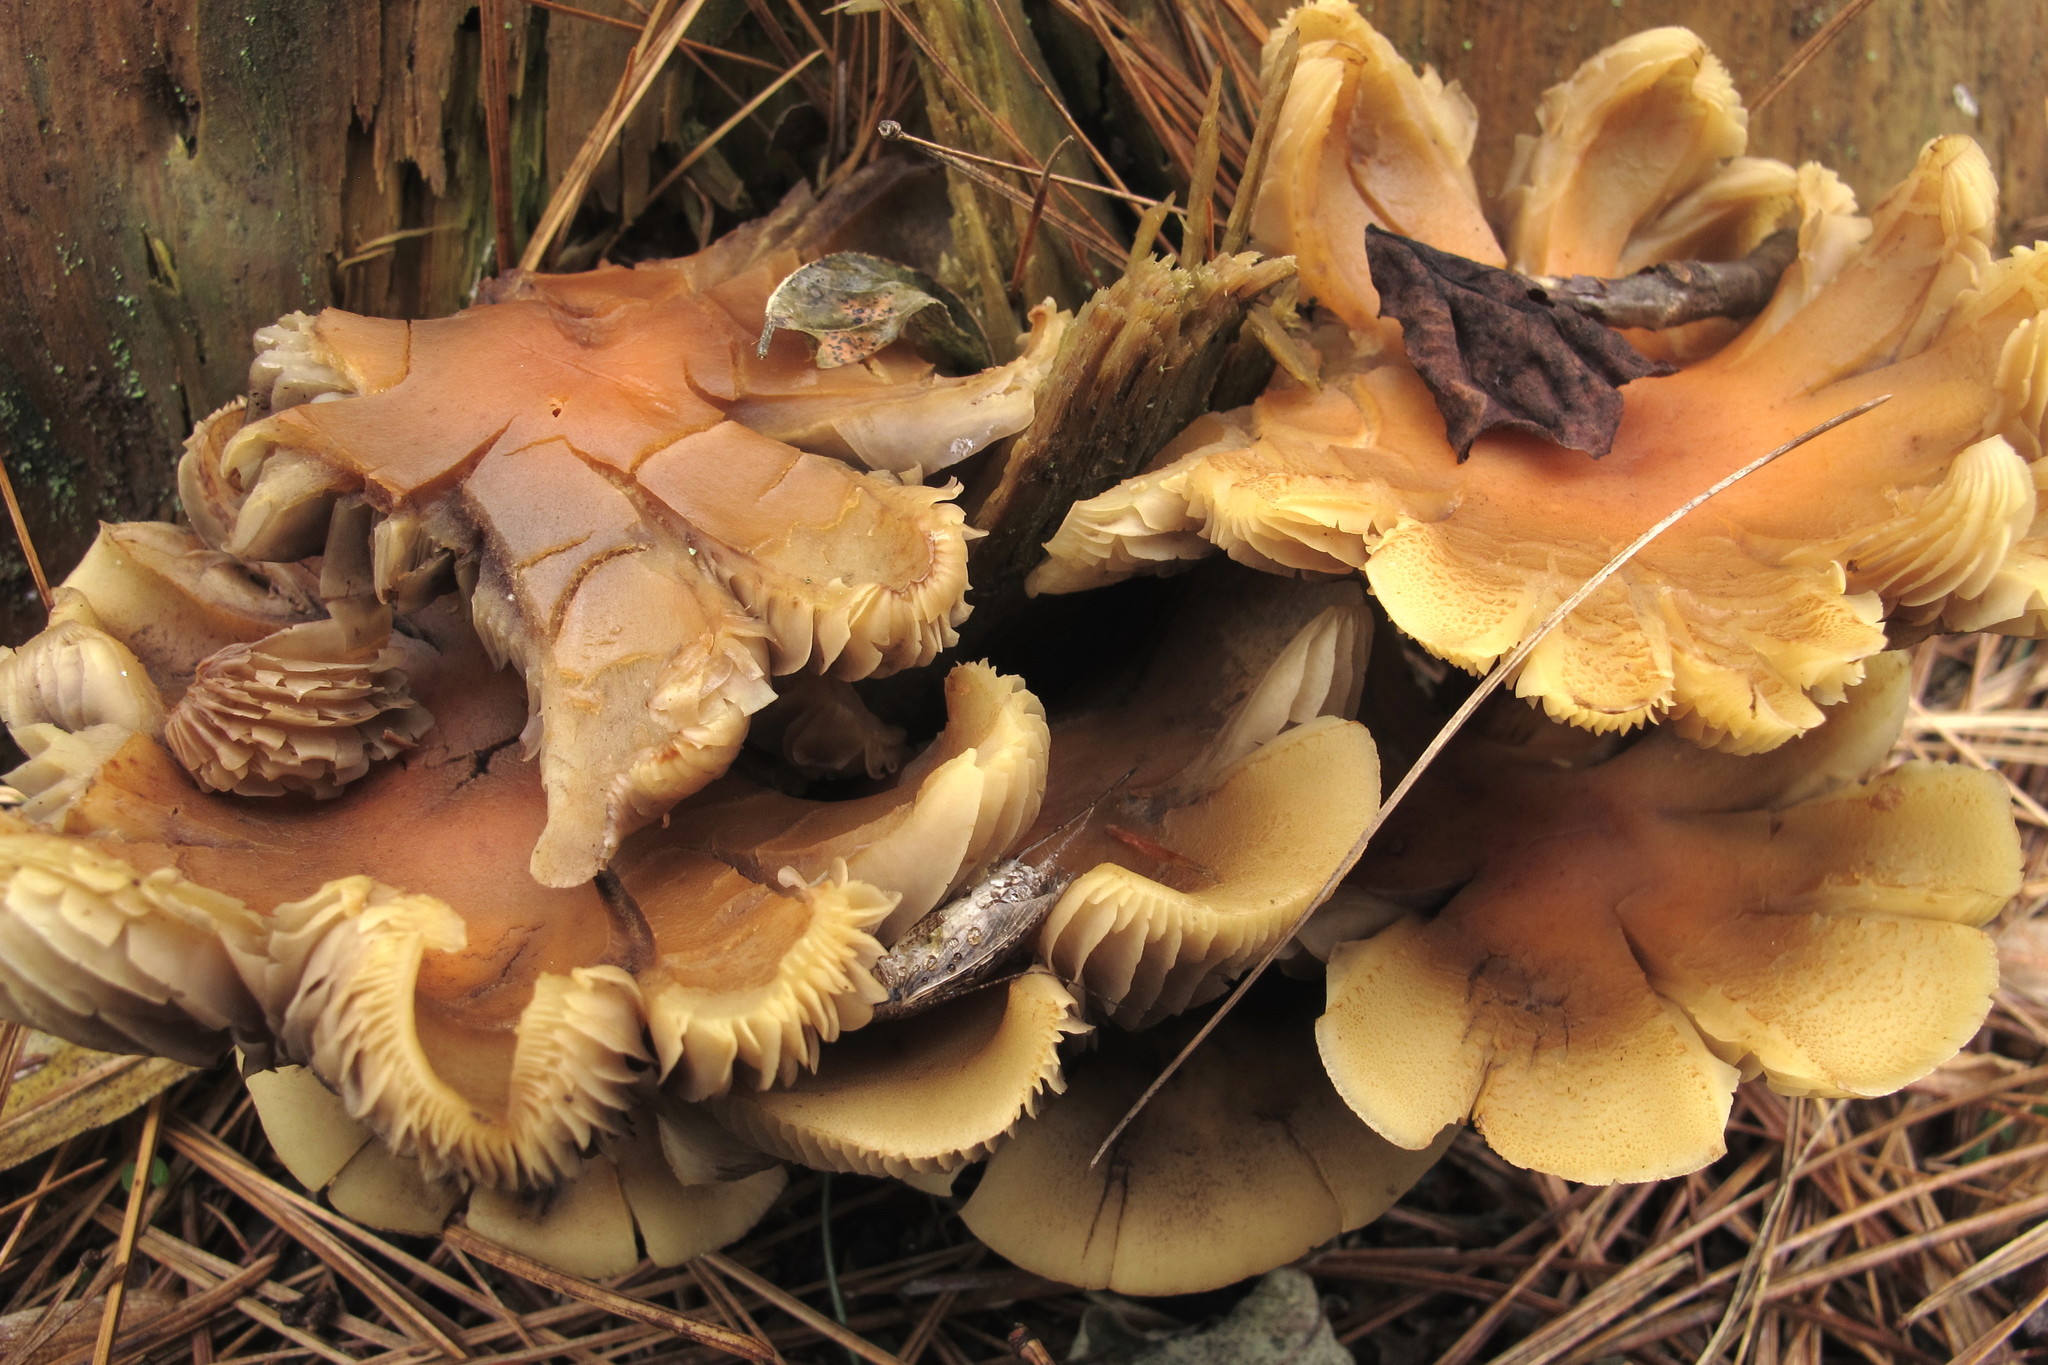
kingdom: Fungi
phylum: Basidiomycota
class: Agaricomycetes
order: Agaricales
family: Strophariaceae
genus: Hypholoma
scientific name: Hypholoma lateritium
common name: Brick caps
